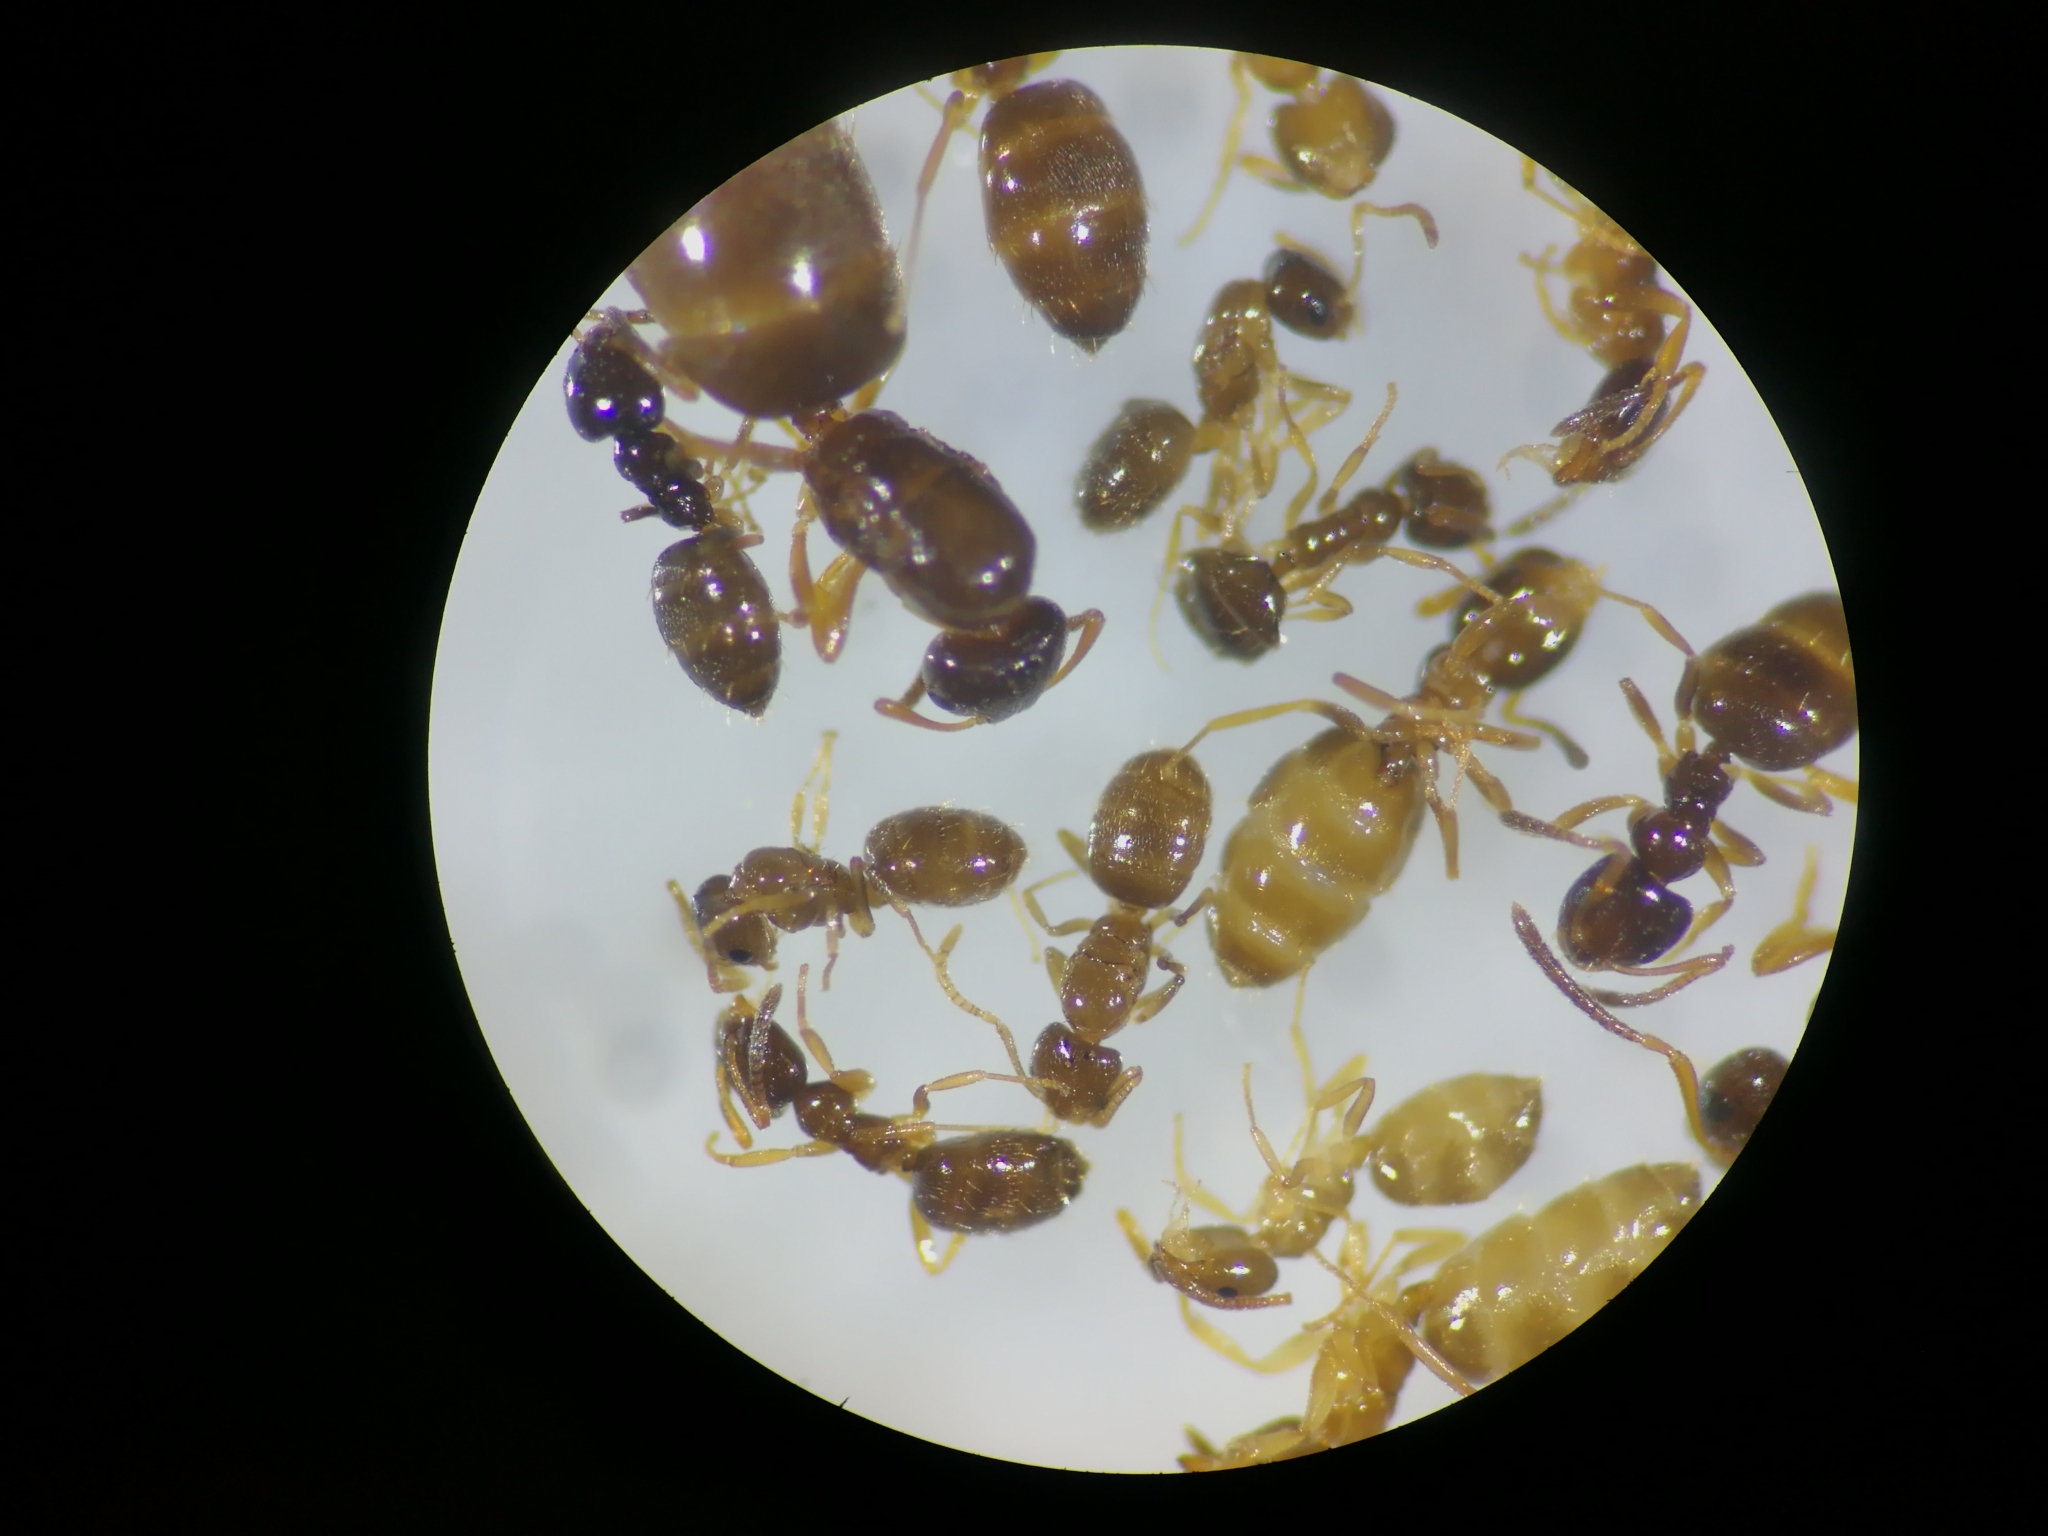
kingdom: Animalia
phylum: Arthropoda
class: Insecta
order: Hymenoptera
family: Formicidae
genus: Plagiolepis
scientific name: Plagiolepis xene
